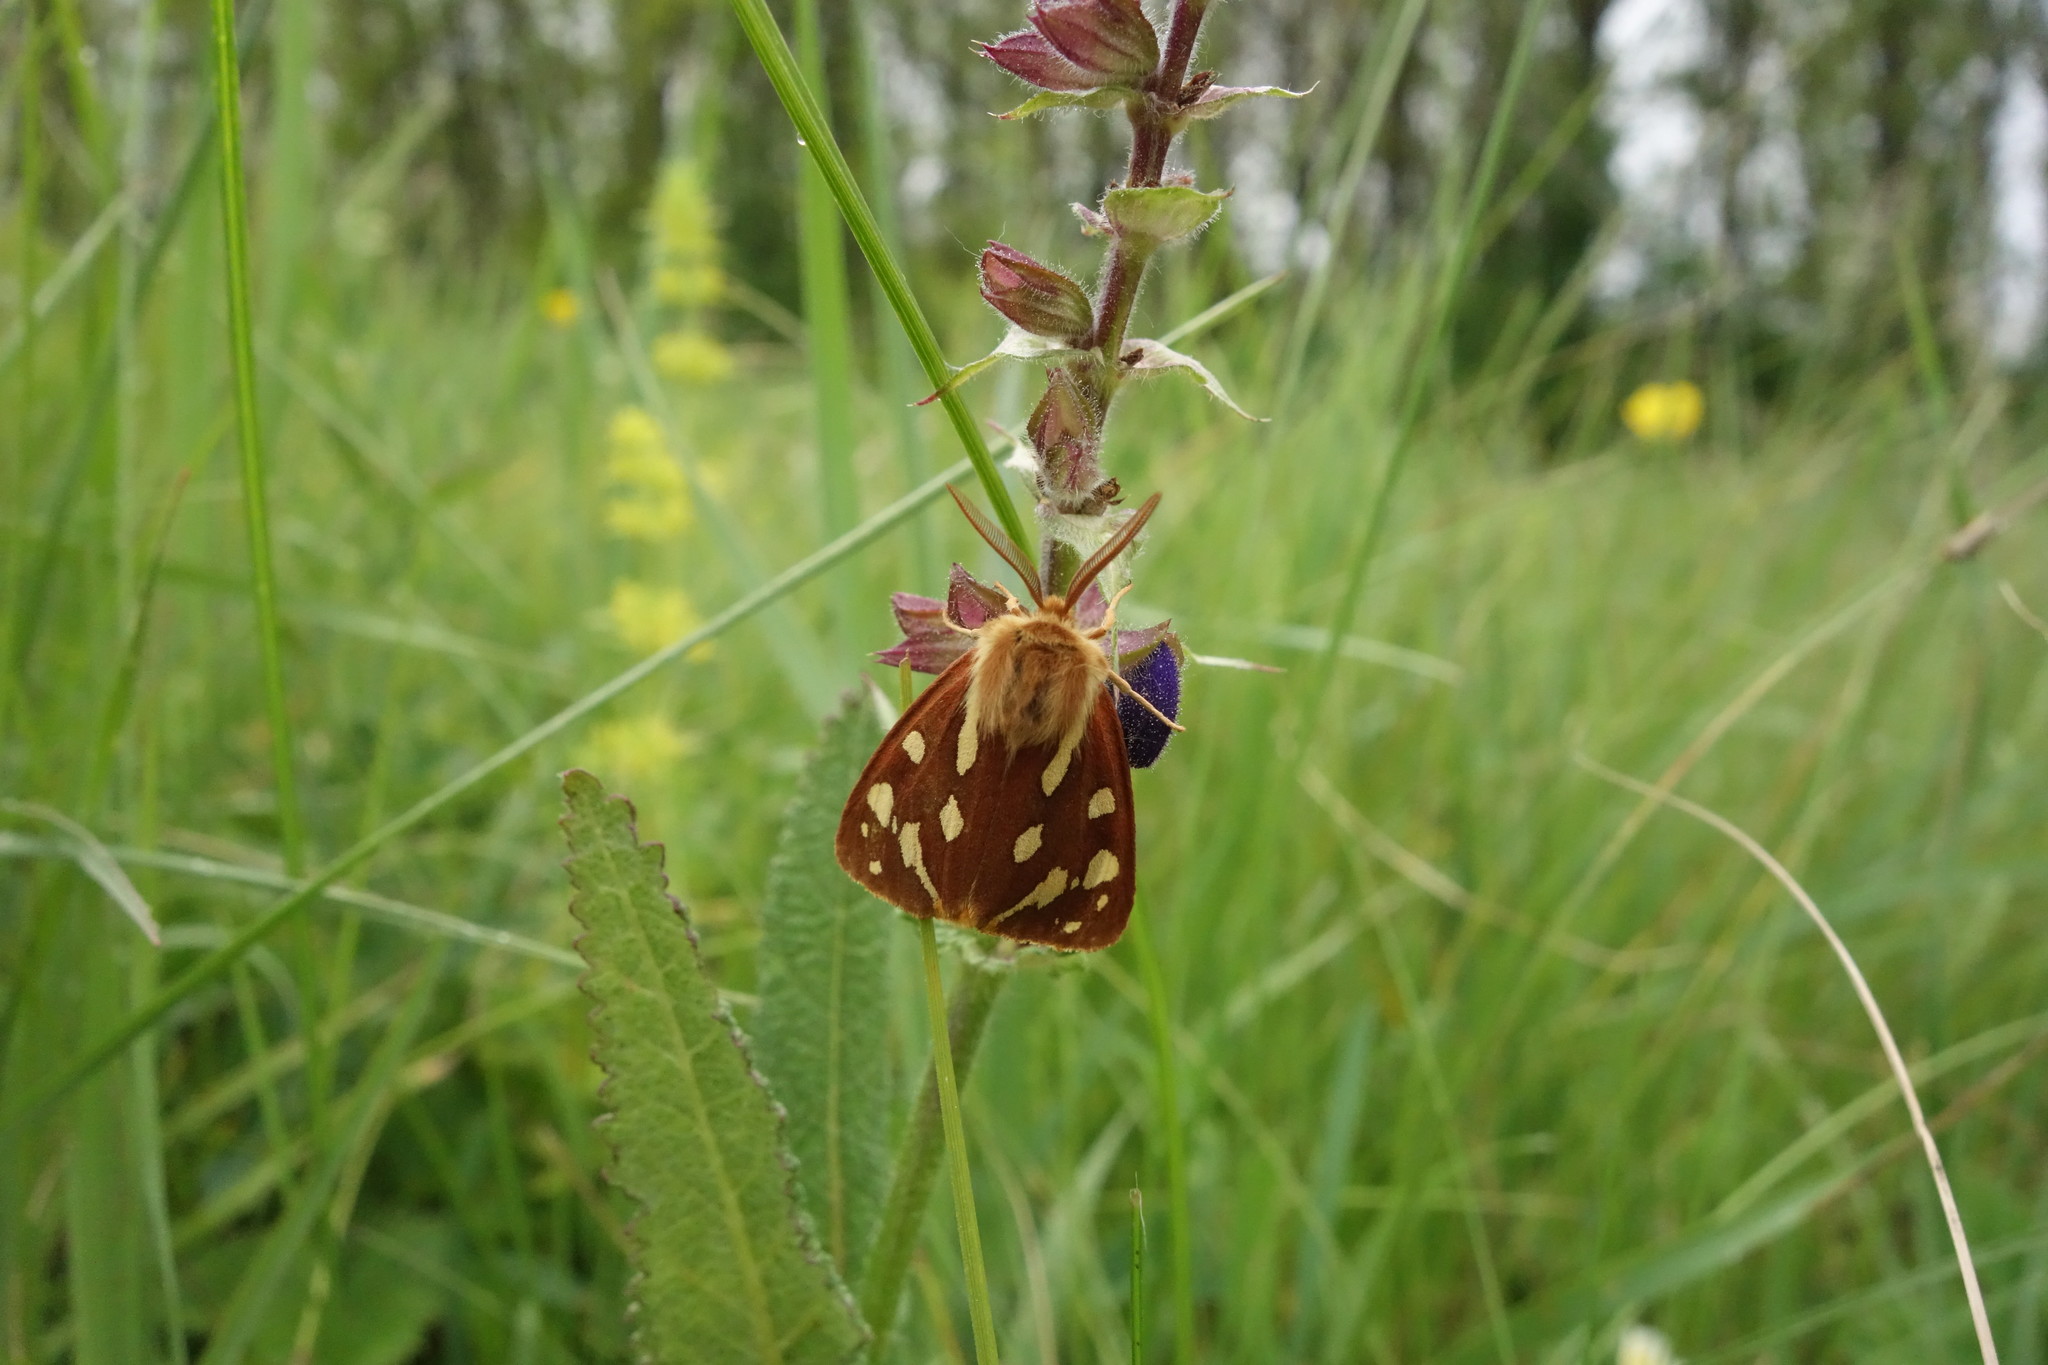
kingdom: Animalia
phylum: Arthropoda
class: Insecta
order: Lepidoptera
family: Erebidae
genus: Hyphoraia
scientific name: Hyphoraia aulica
